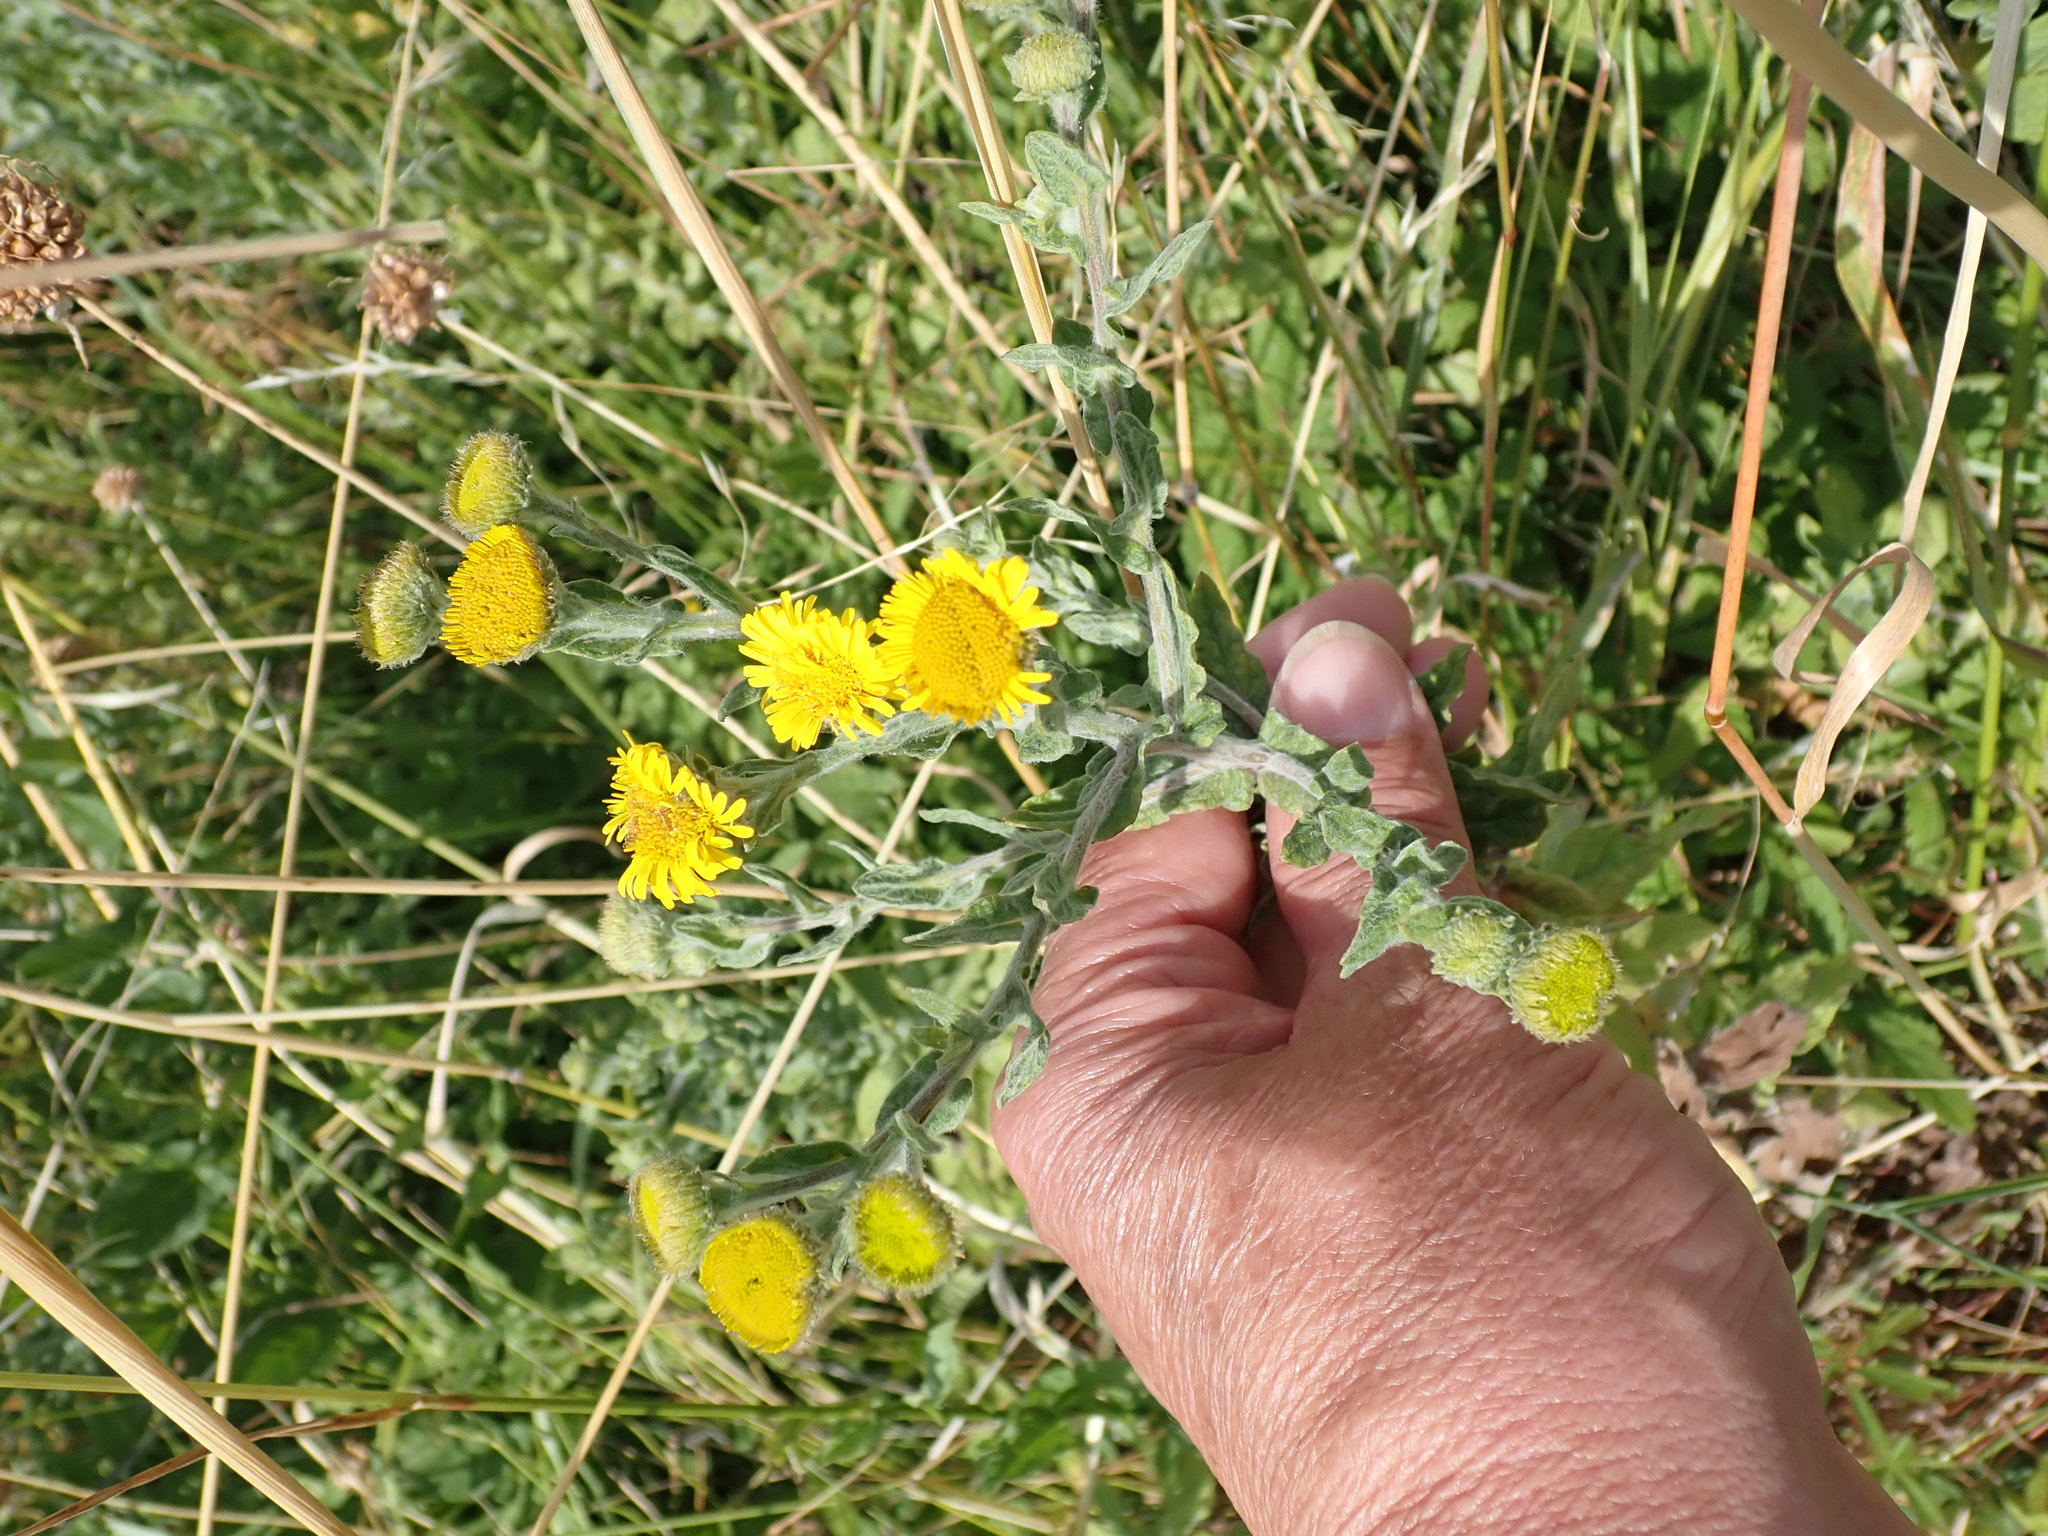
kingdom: Plantae
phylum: Tracheophyta
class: Magnoliopsida
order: Asterales
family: Asteraceae
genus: Pulicaria
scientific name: Pulicaria dysenterica
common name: Common fleabane
